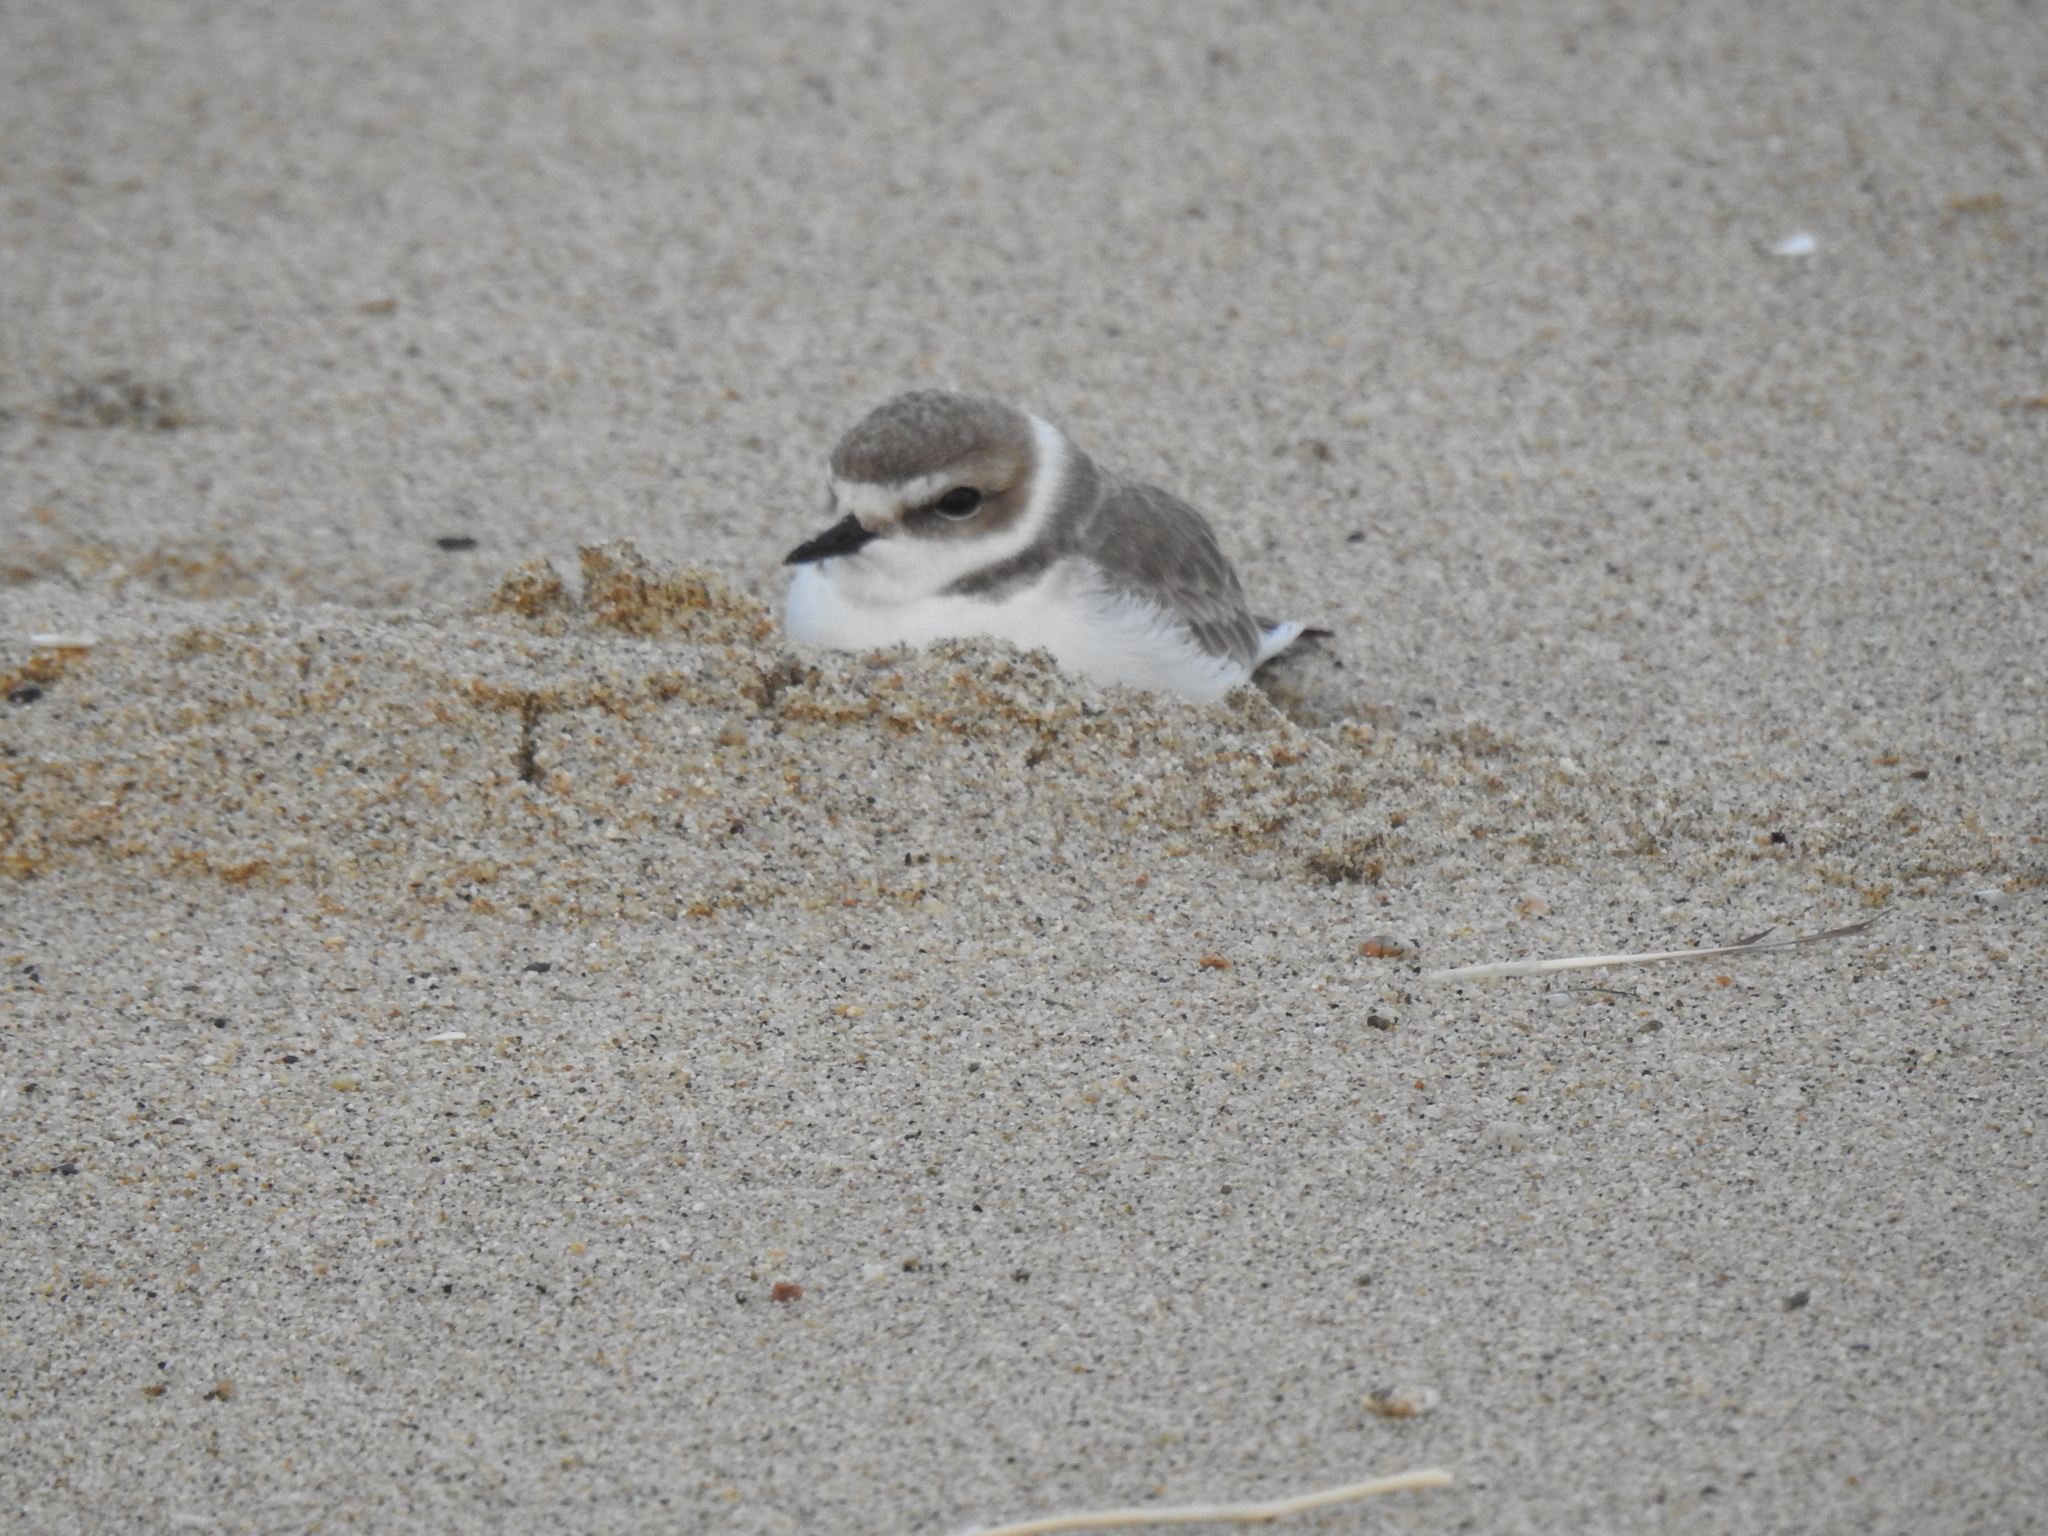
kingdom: Animalia
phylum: Chordata
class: Aves
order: Charadriiformes
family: Charadriidae
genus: Anarhynchus
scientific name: Anarhynchus
